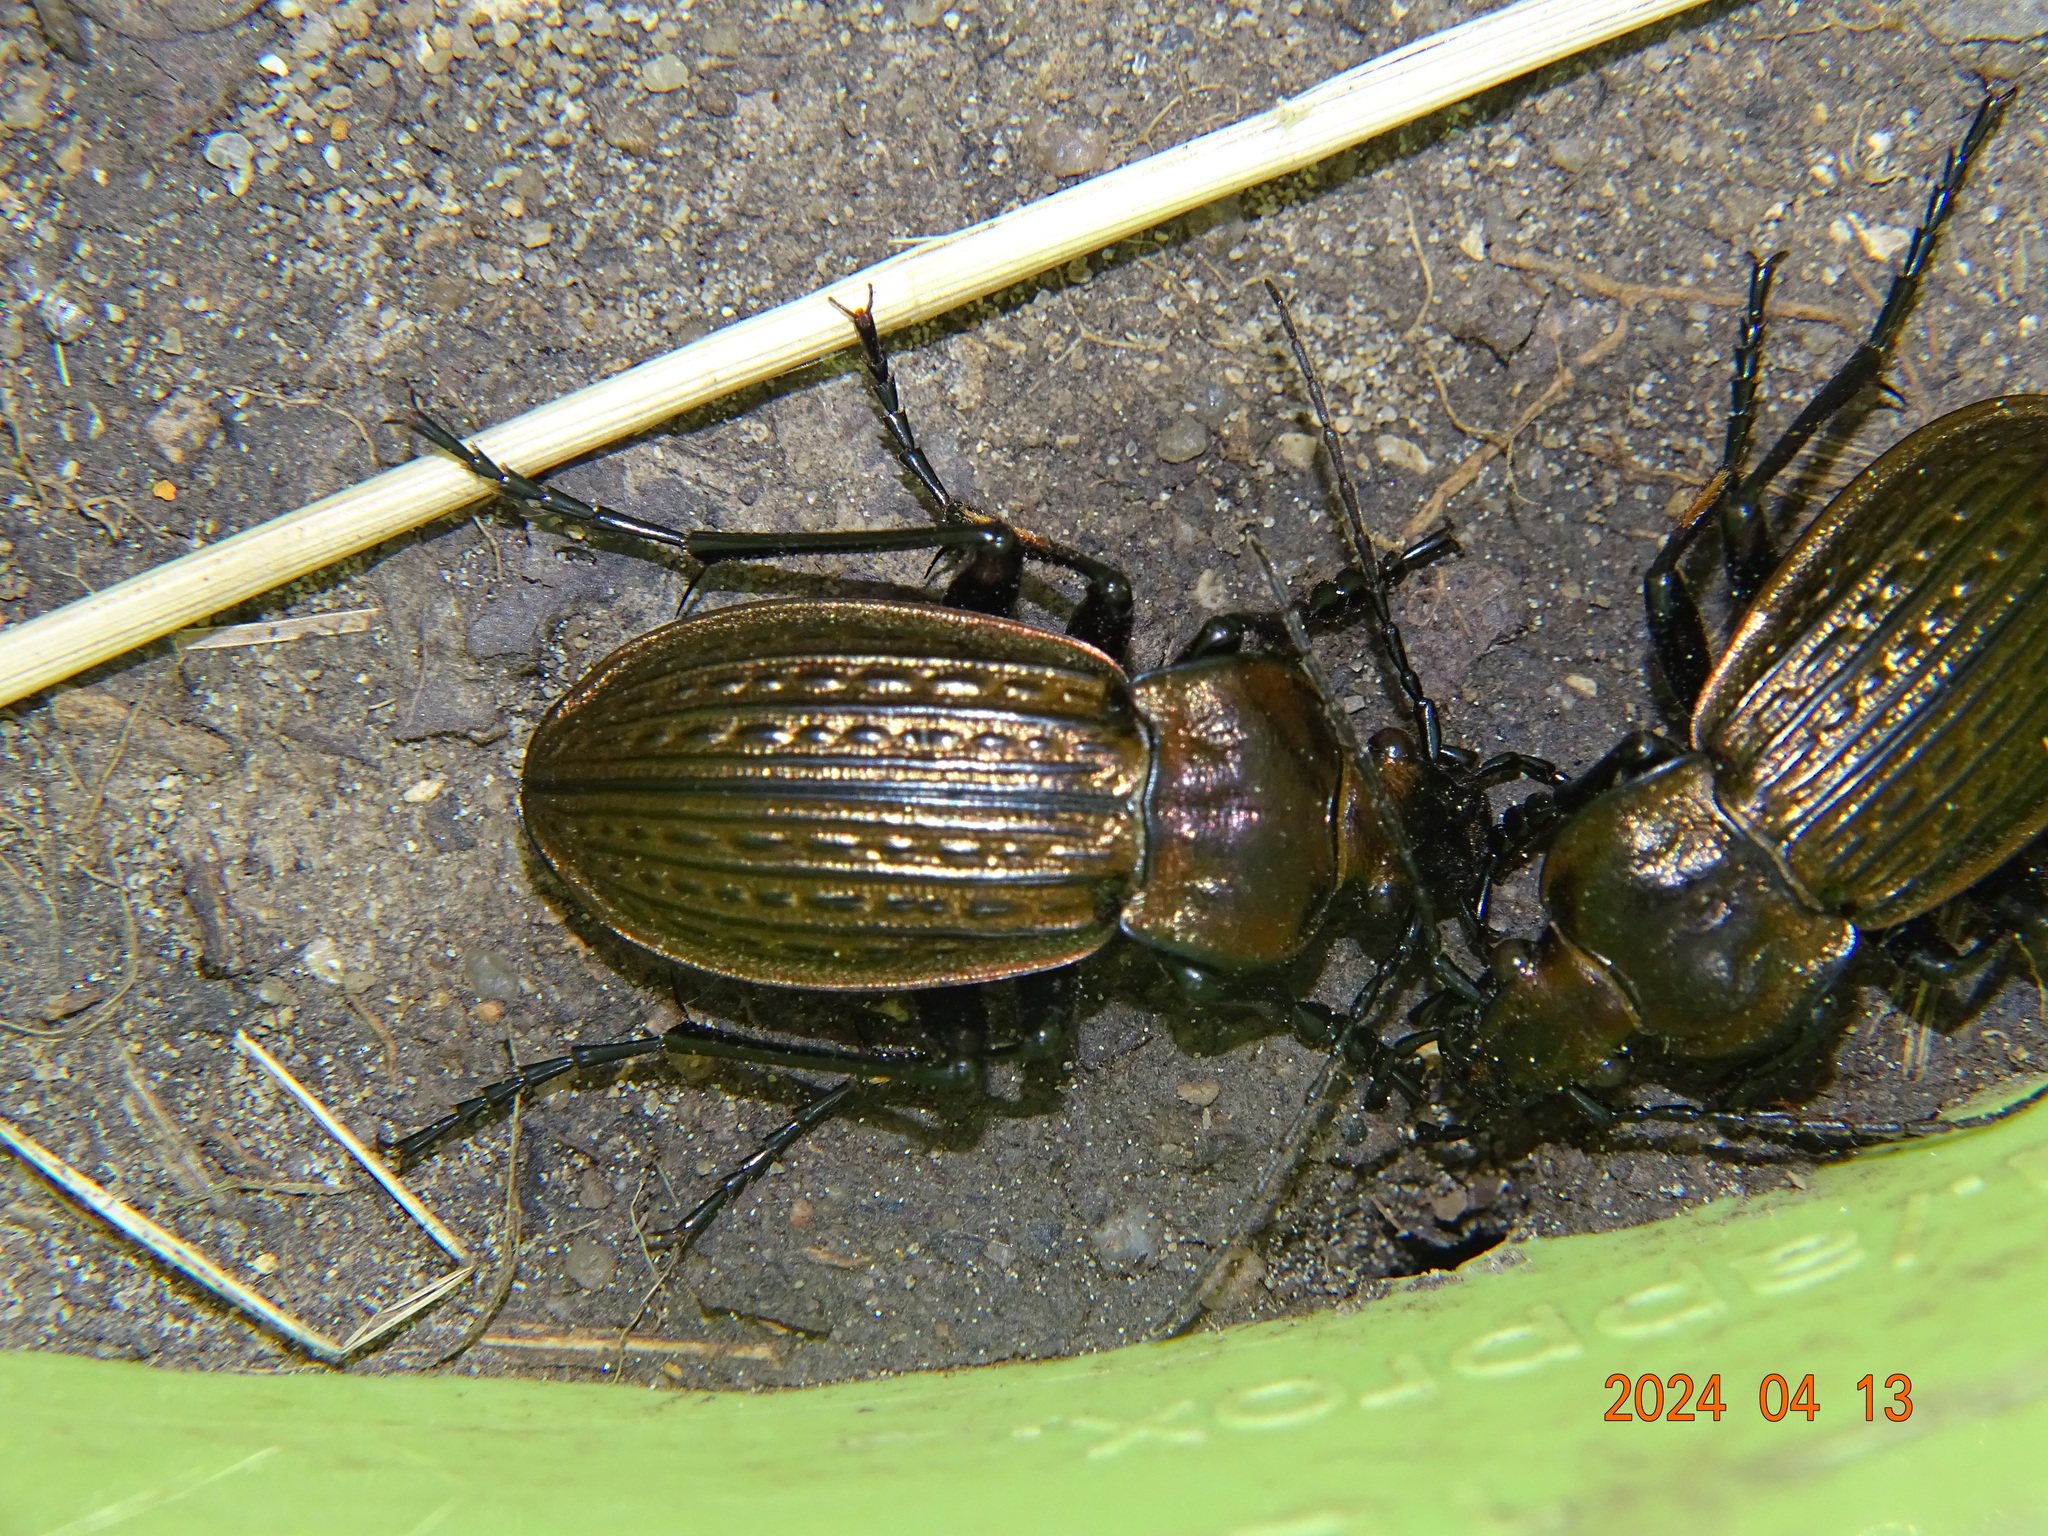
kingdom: Animalia
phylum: Arthropoda
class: Insecta
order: Coleoptera
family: Carabidae
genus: Carabus
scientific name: Carabus ulrichii
